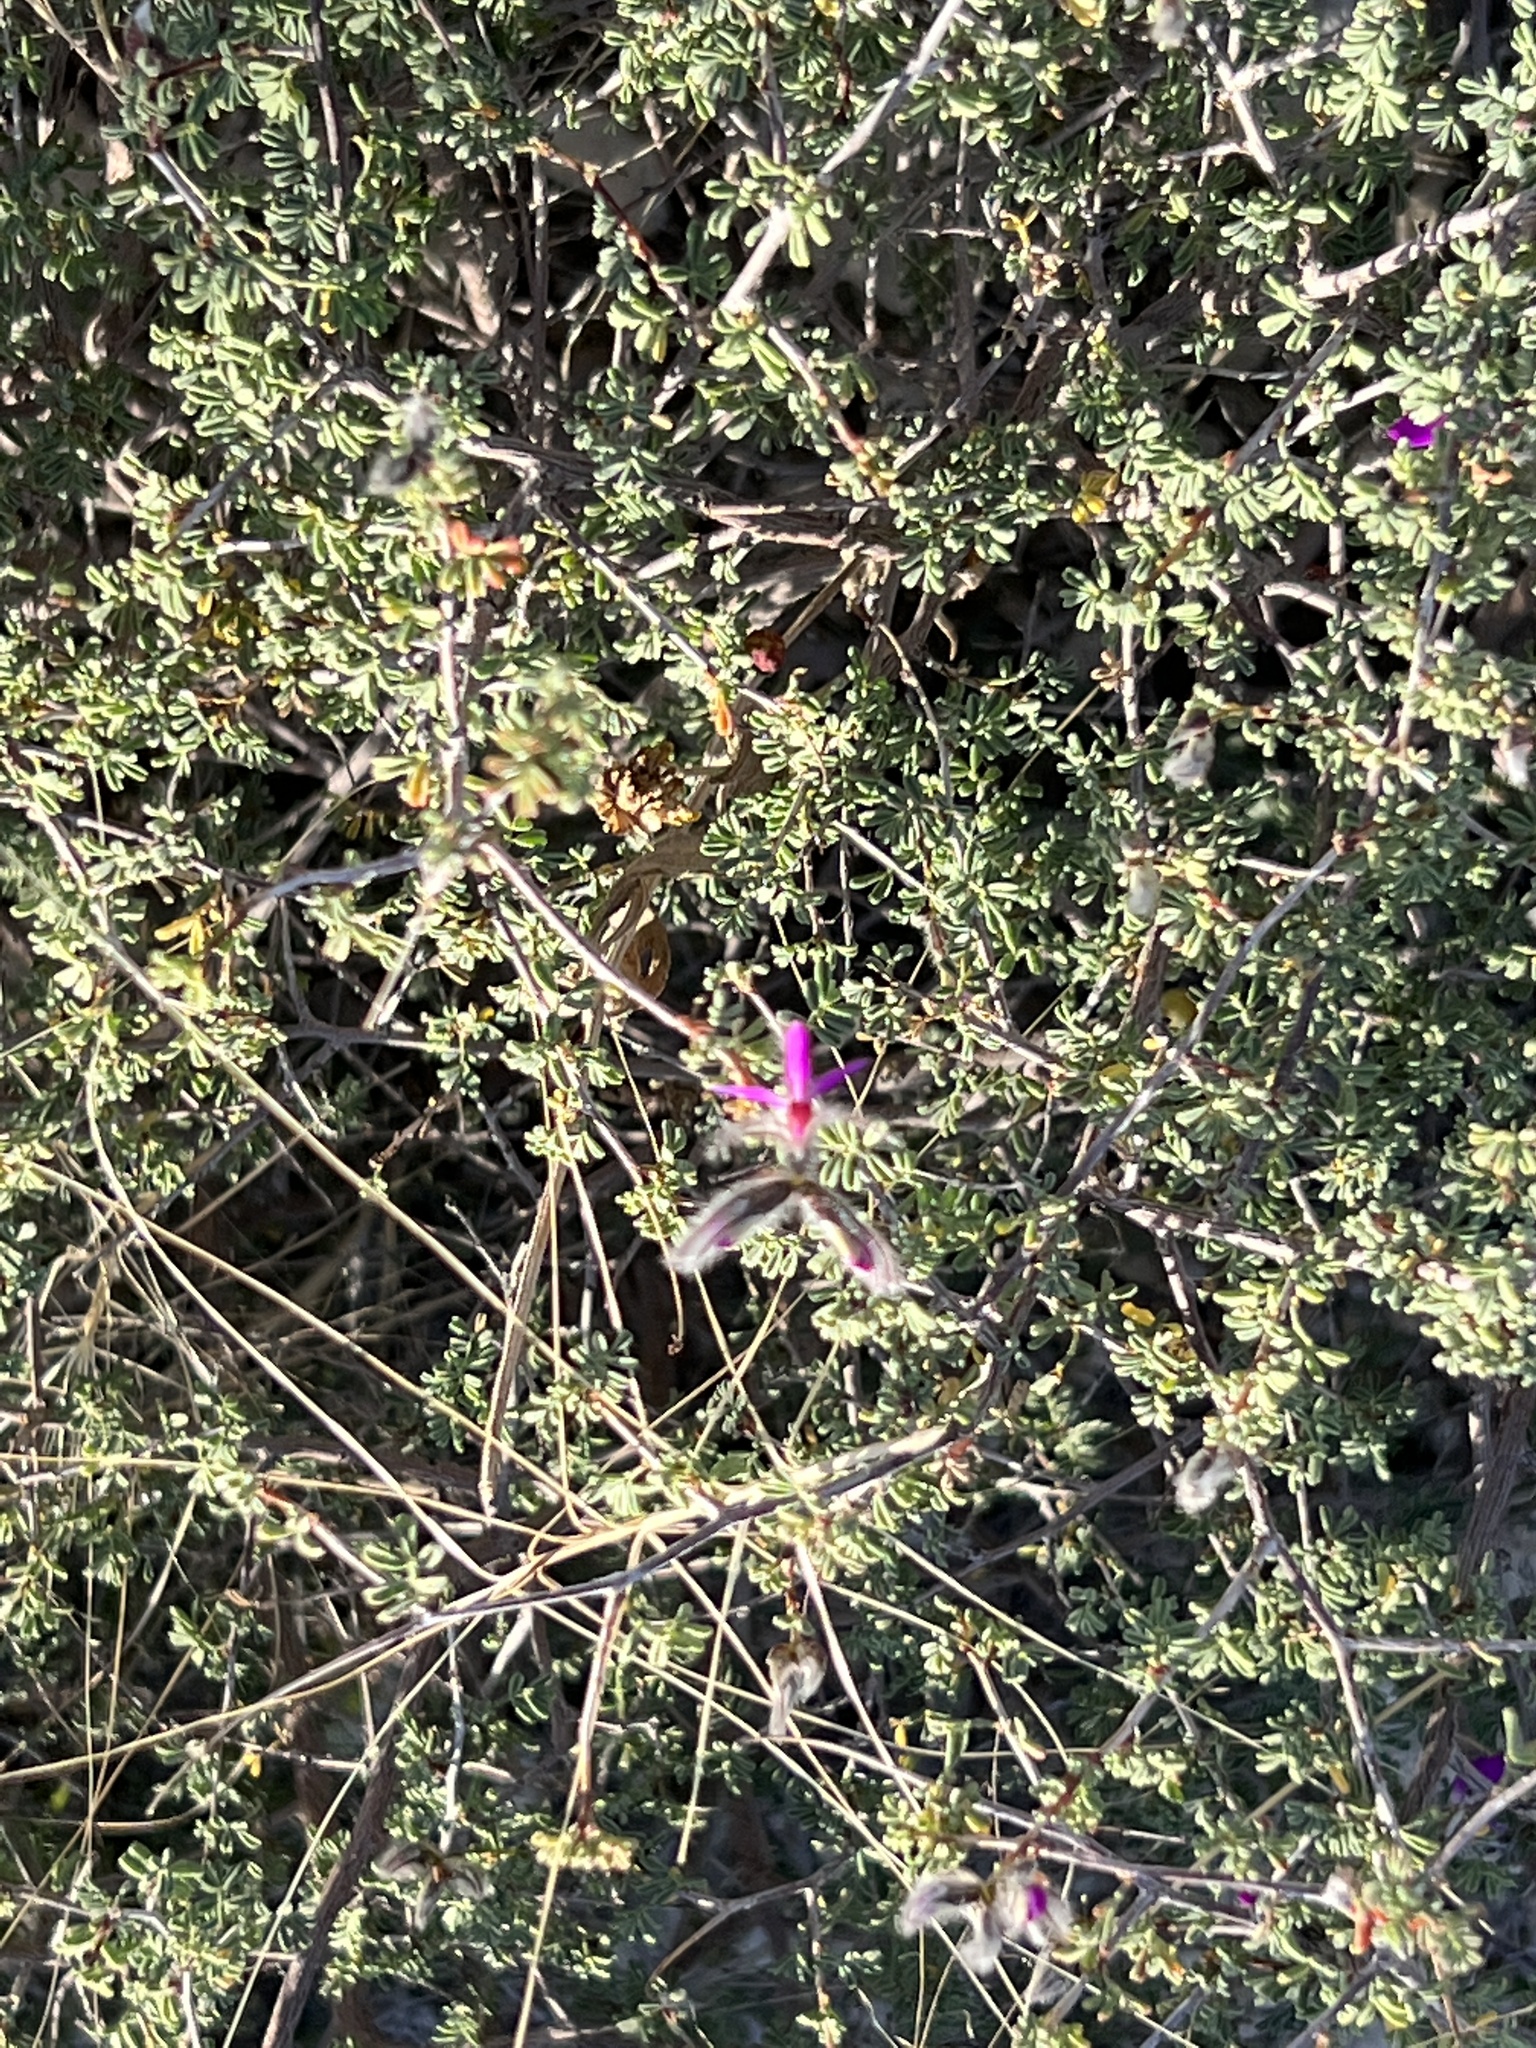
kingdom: Plantae
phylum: Tracheophyta
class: Magnoliopsida
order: Fabales
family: Fabaceae
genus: Dalea
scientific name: Dalea formosa
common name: Feather-plume dalea
